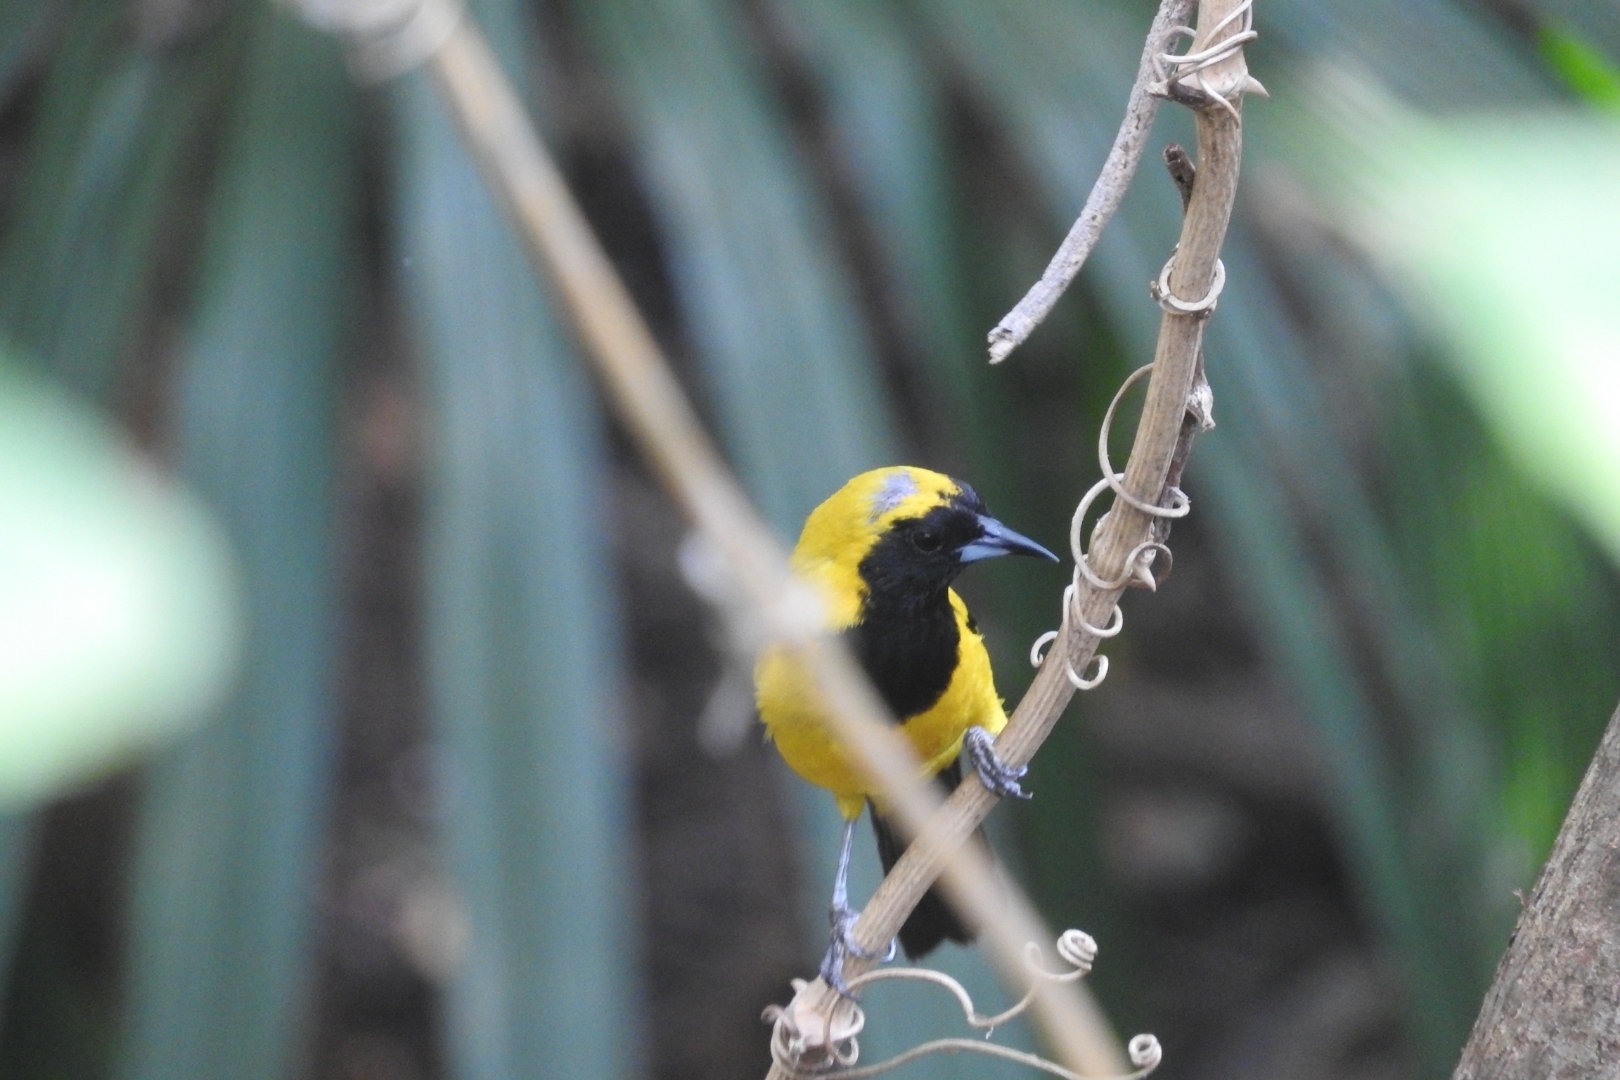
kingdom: Animalia
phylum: Chordata
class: Aves
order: Passeriformes
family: Icteridae
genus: Icterus
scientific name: Icterus chrysater
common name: Yellow-backed oriole
